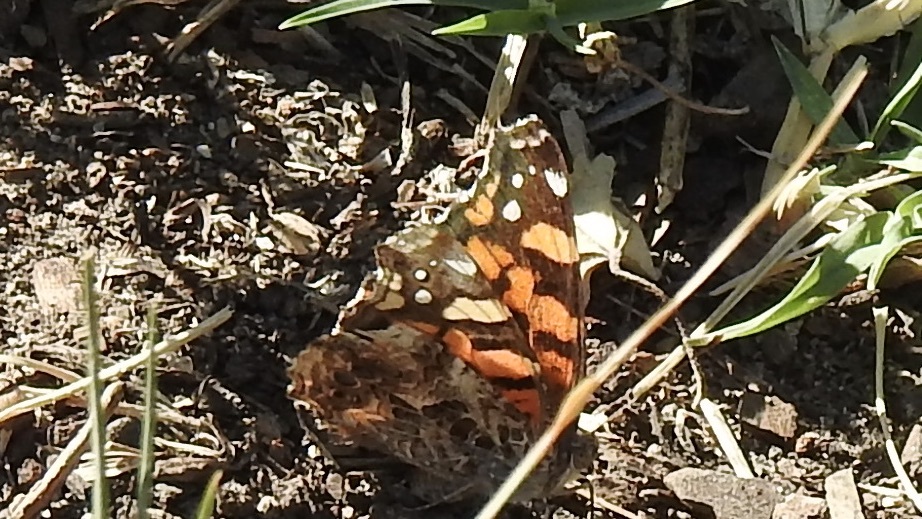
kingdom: Animalia
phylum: Arthropoda
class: Insecta
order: Lepidoptera
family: Nymphalidae
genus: Vanessa
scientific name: Vanessa annabella
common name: West coast lady
